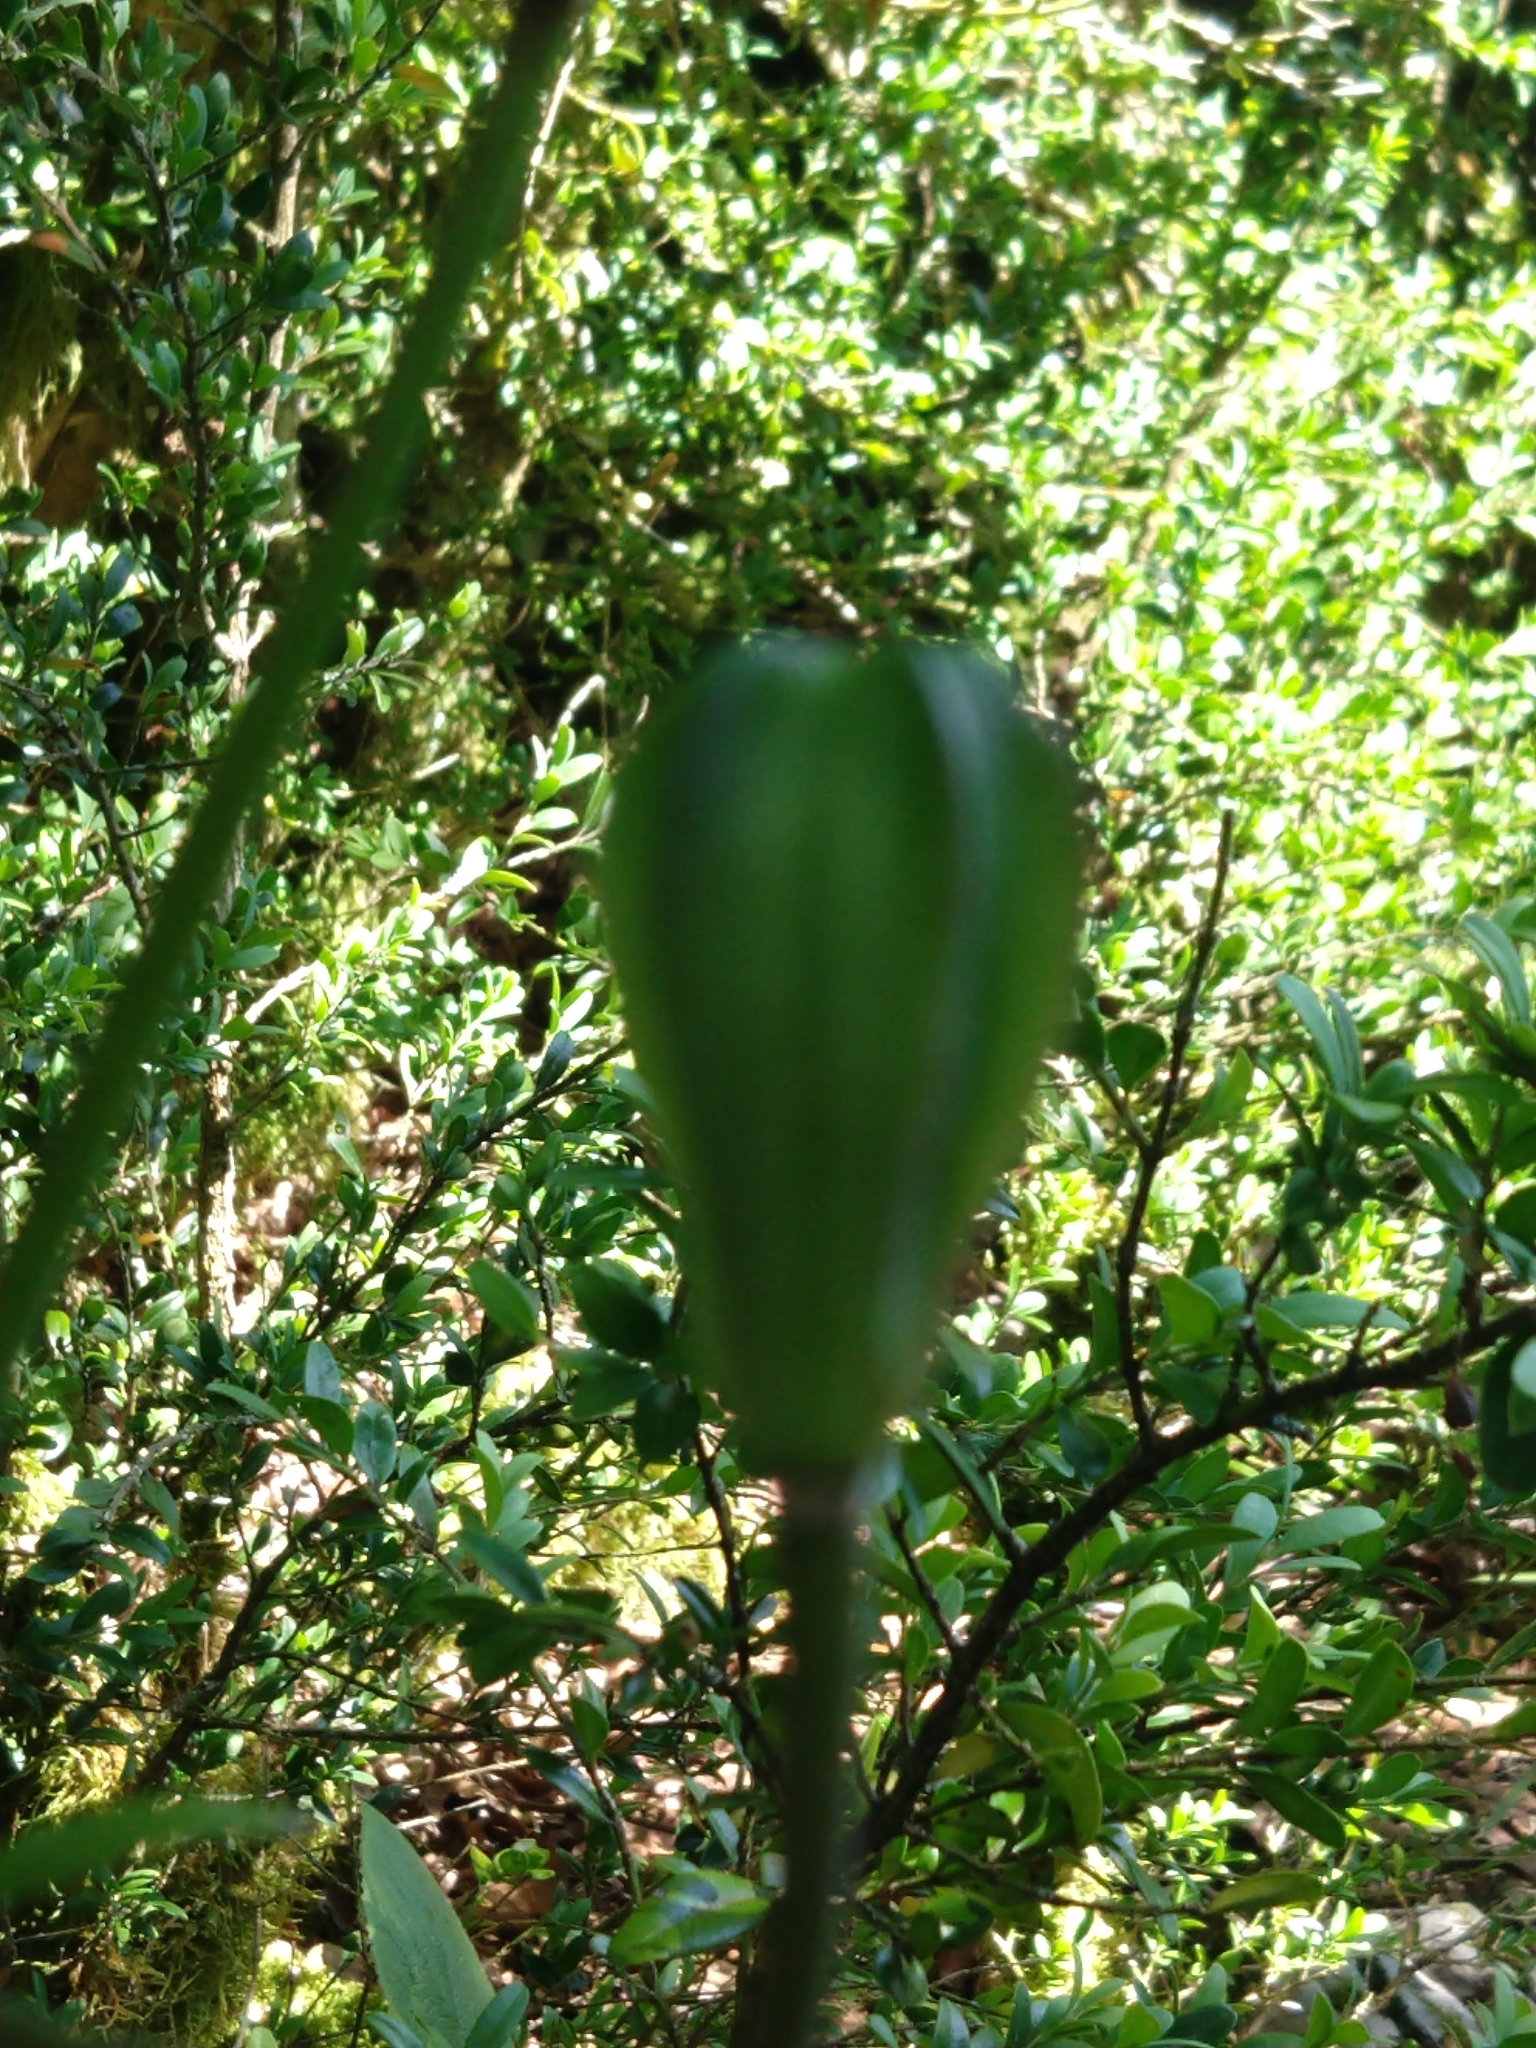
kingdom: Plantae
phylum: Tracheophyta
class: Liliopsida
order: Liliales
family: Liliaceae
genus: Lilium
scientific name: Lilium martagon
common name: Martagon lily
